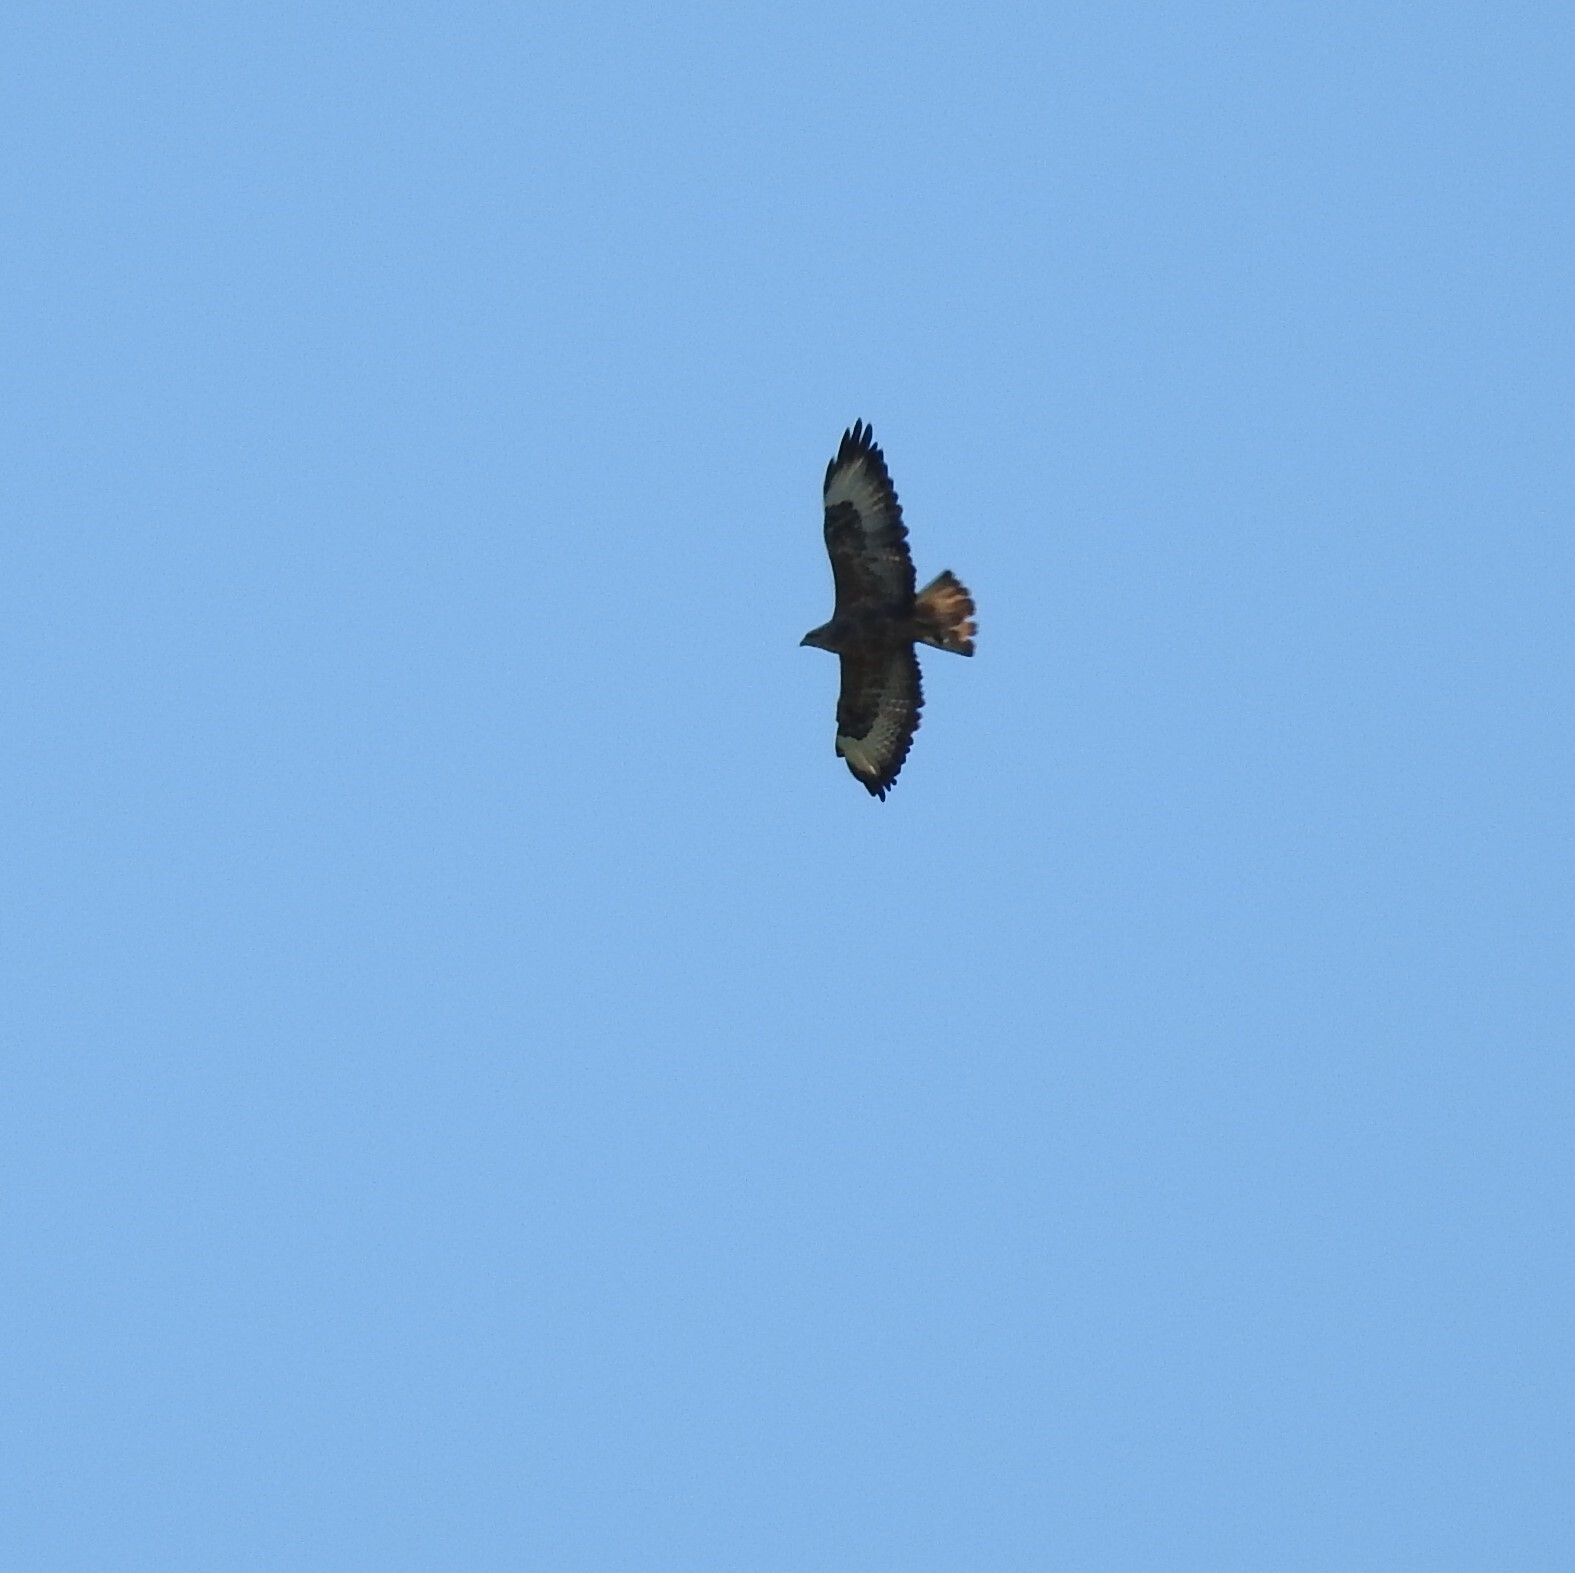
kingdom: Animalia
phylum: Chordata
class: Aves
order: Accipitriformes
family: Accipitridae
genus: Buteo
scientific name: Buteo buteo
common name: Common buzzard
